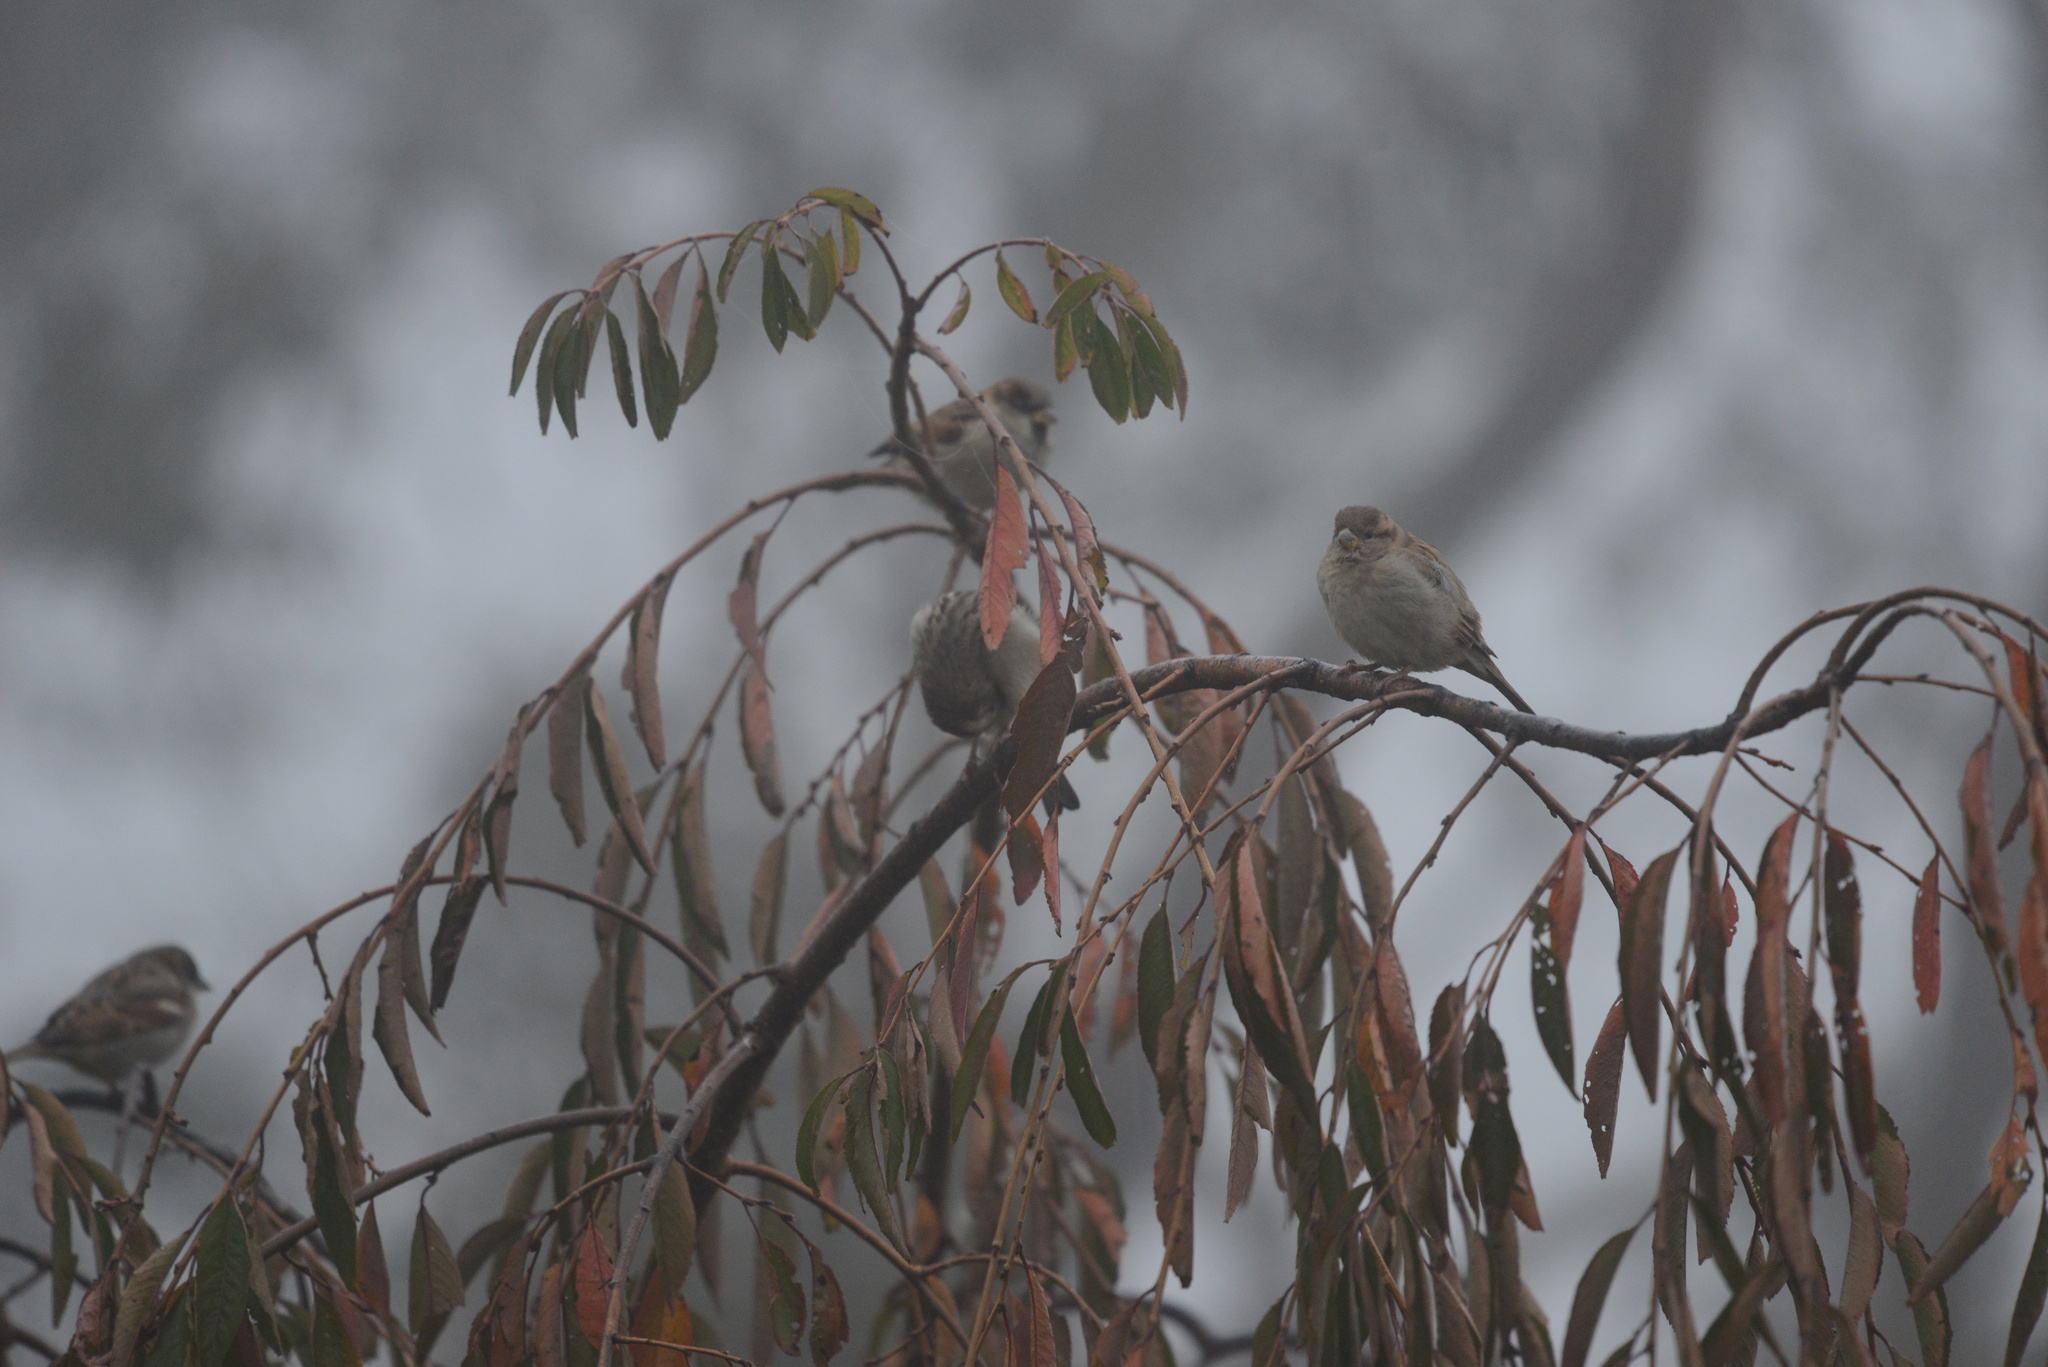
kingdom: Animalia
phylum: Chordata
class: Aves
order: Passeriformes
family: Passeridae
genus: Passer
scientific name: Passer domesticus
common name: House sparrow
